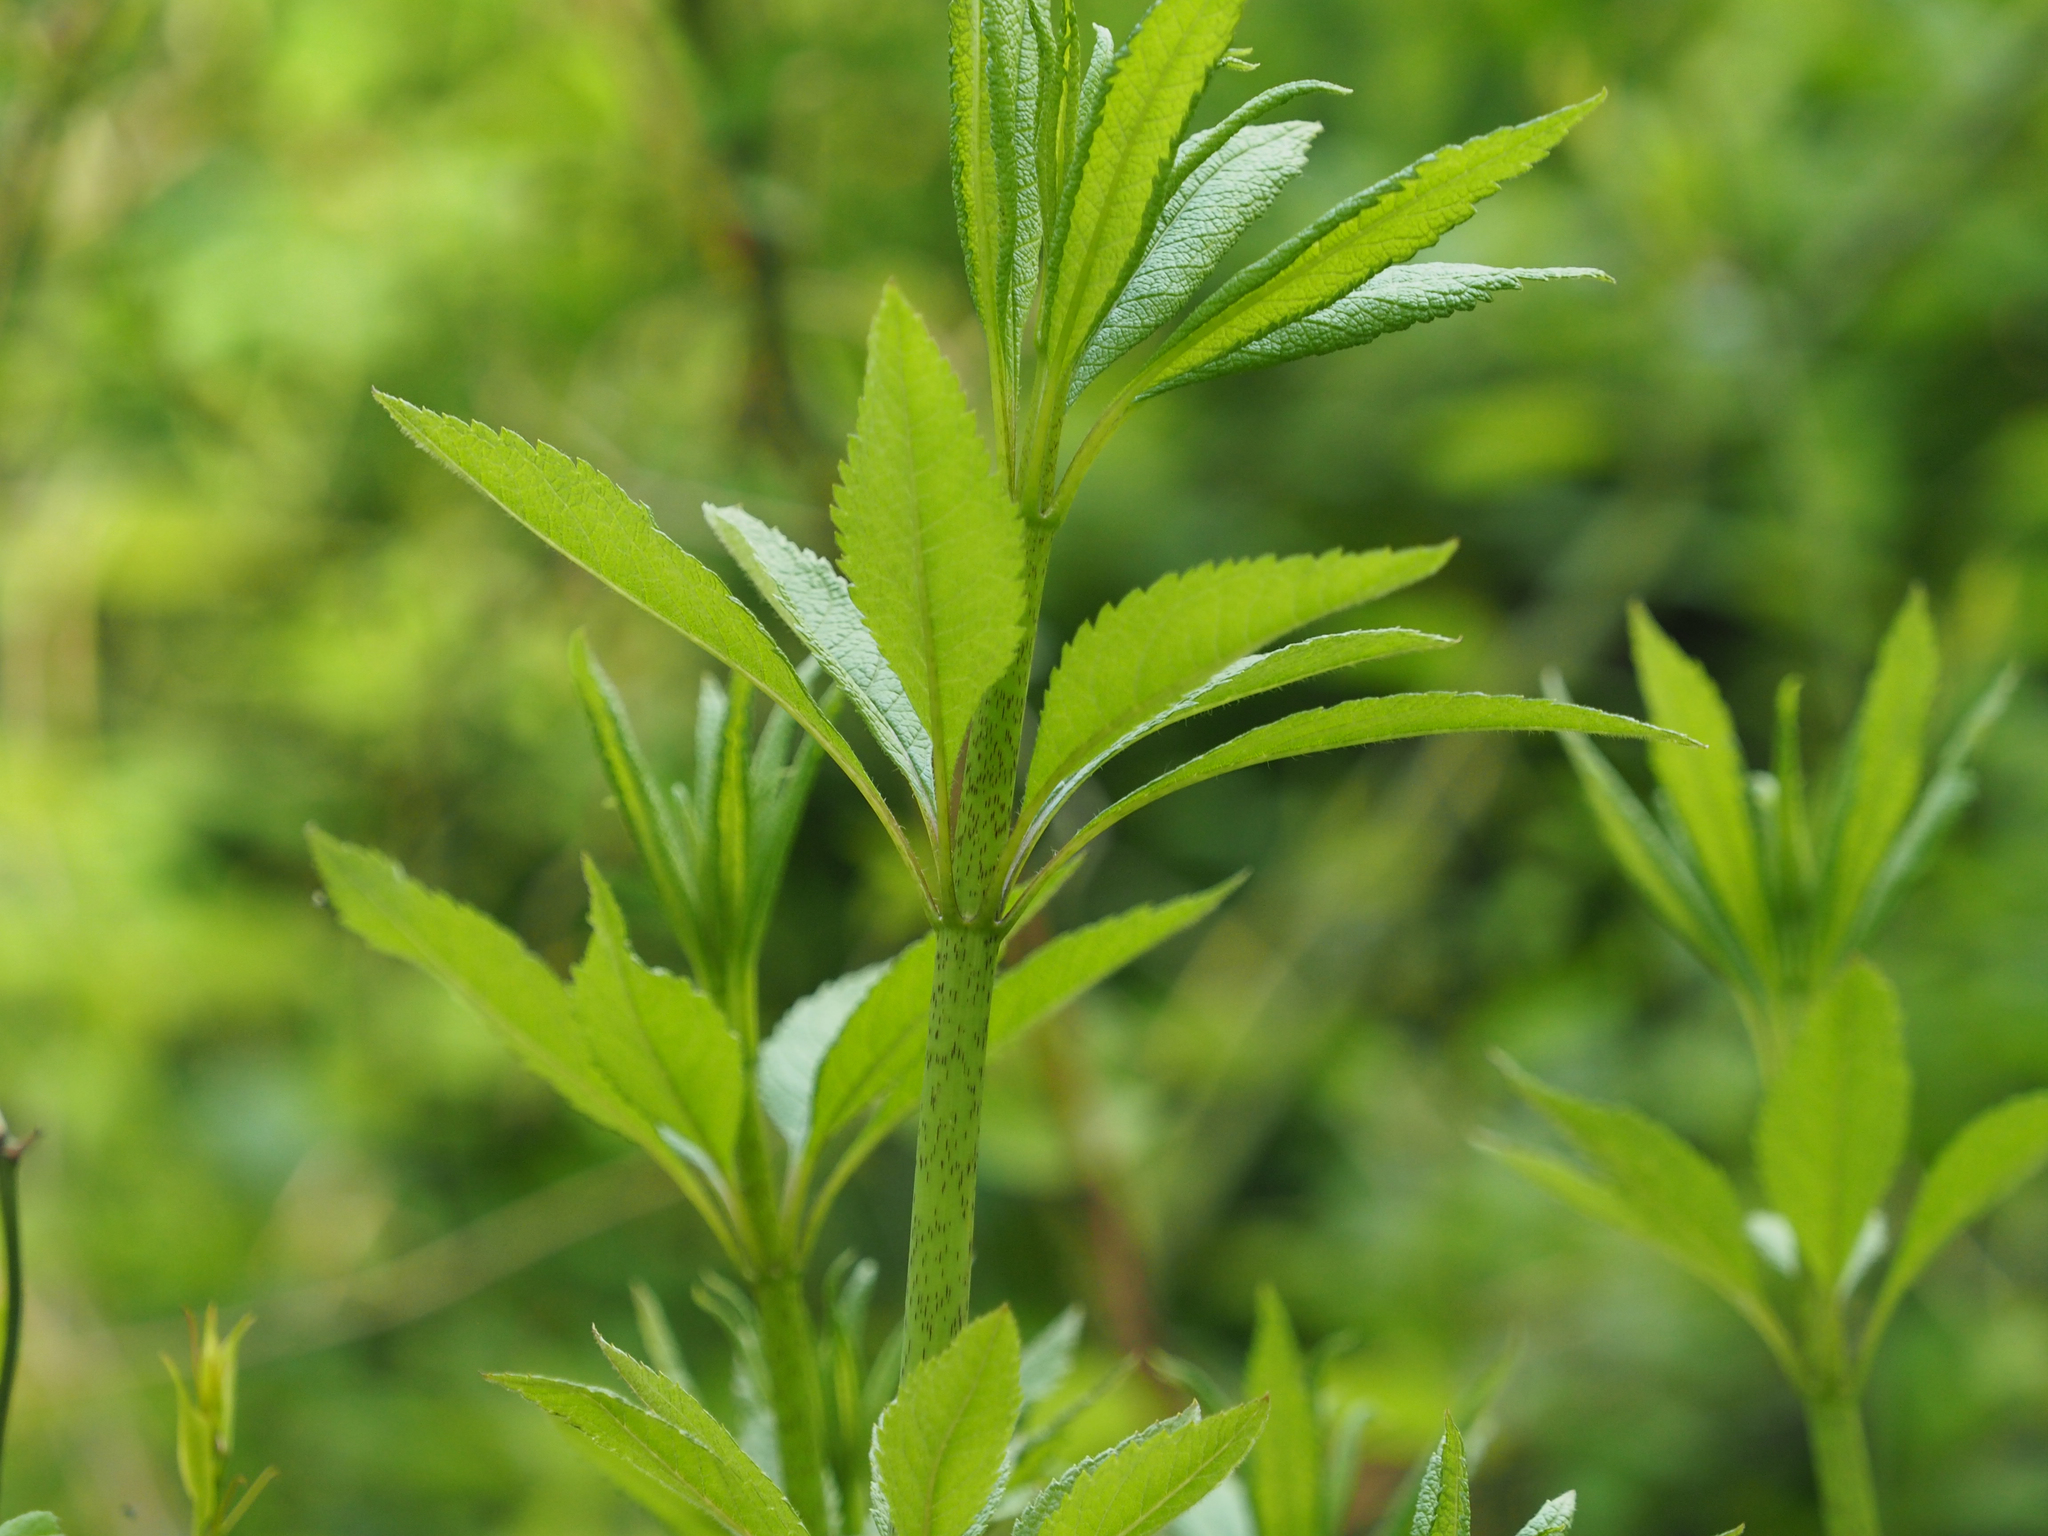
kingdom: Plantae
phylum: Tracheophyta
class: Magnoliopsida
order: Asterales
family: Asteraceae
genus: Eutrochium
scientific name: Eutrochium fistulosum
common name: Trumpetweed
